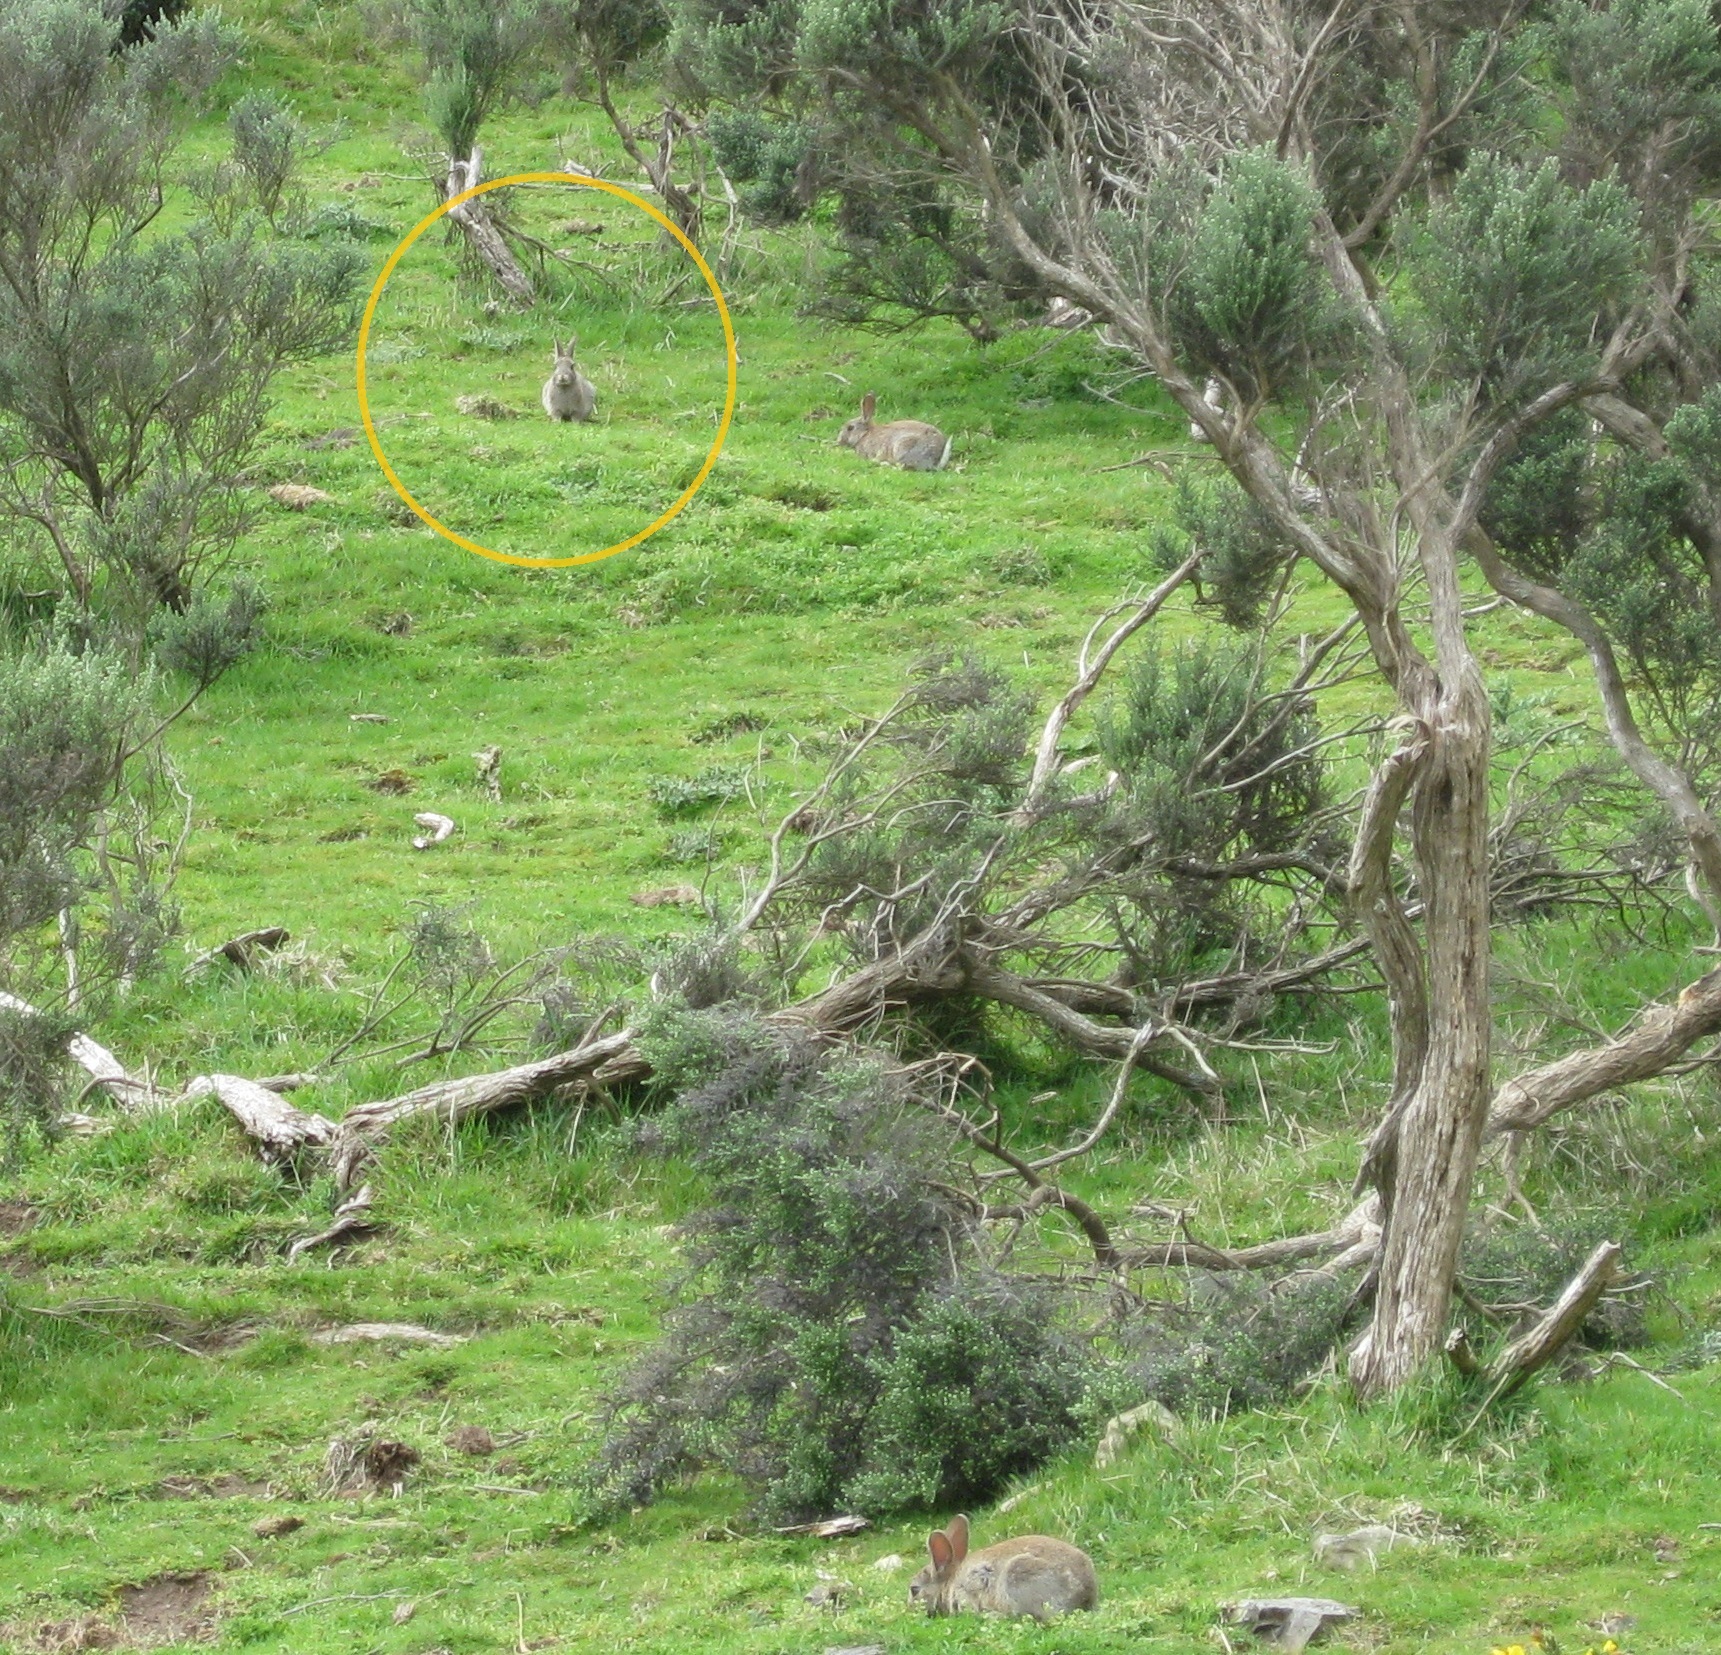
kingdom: Animalia
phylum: Chordata
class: Mammalia
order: Lagomorpha
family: Leporidae
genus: Oryctolagus
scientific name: Oryctolagus cuniculus
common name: European rabbit
